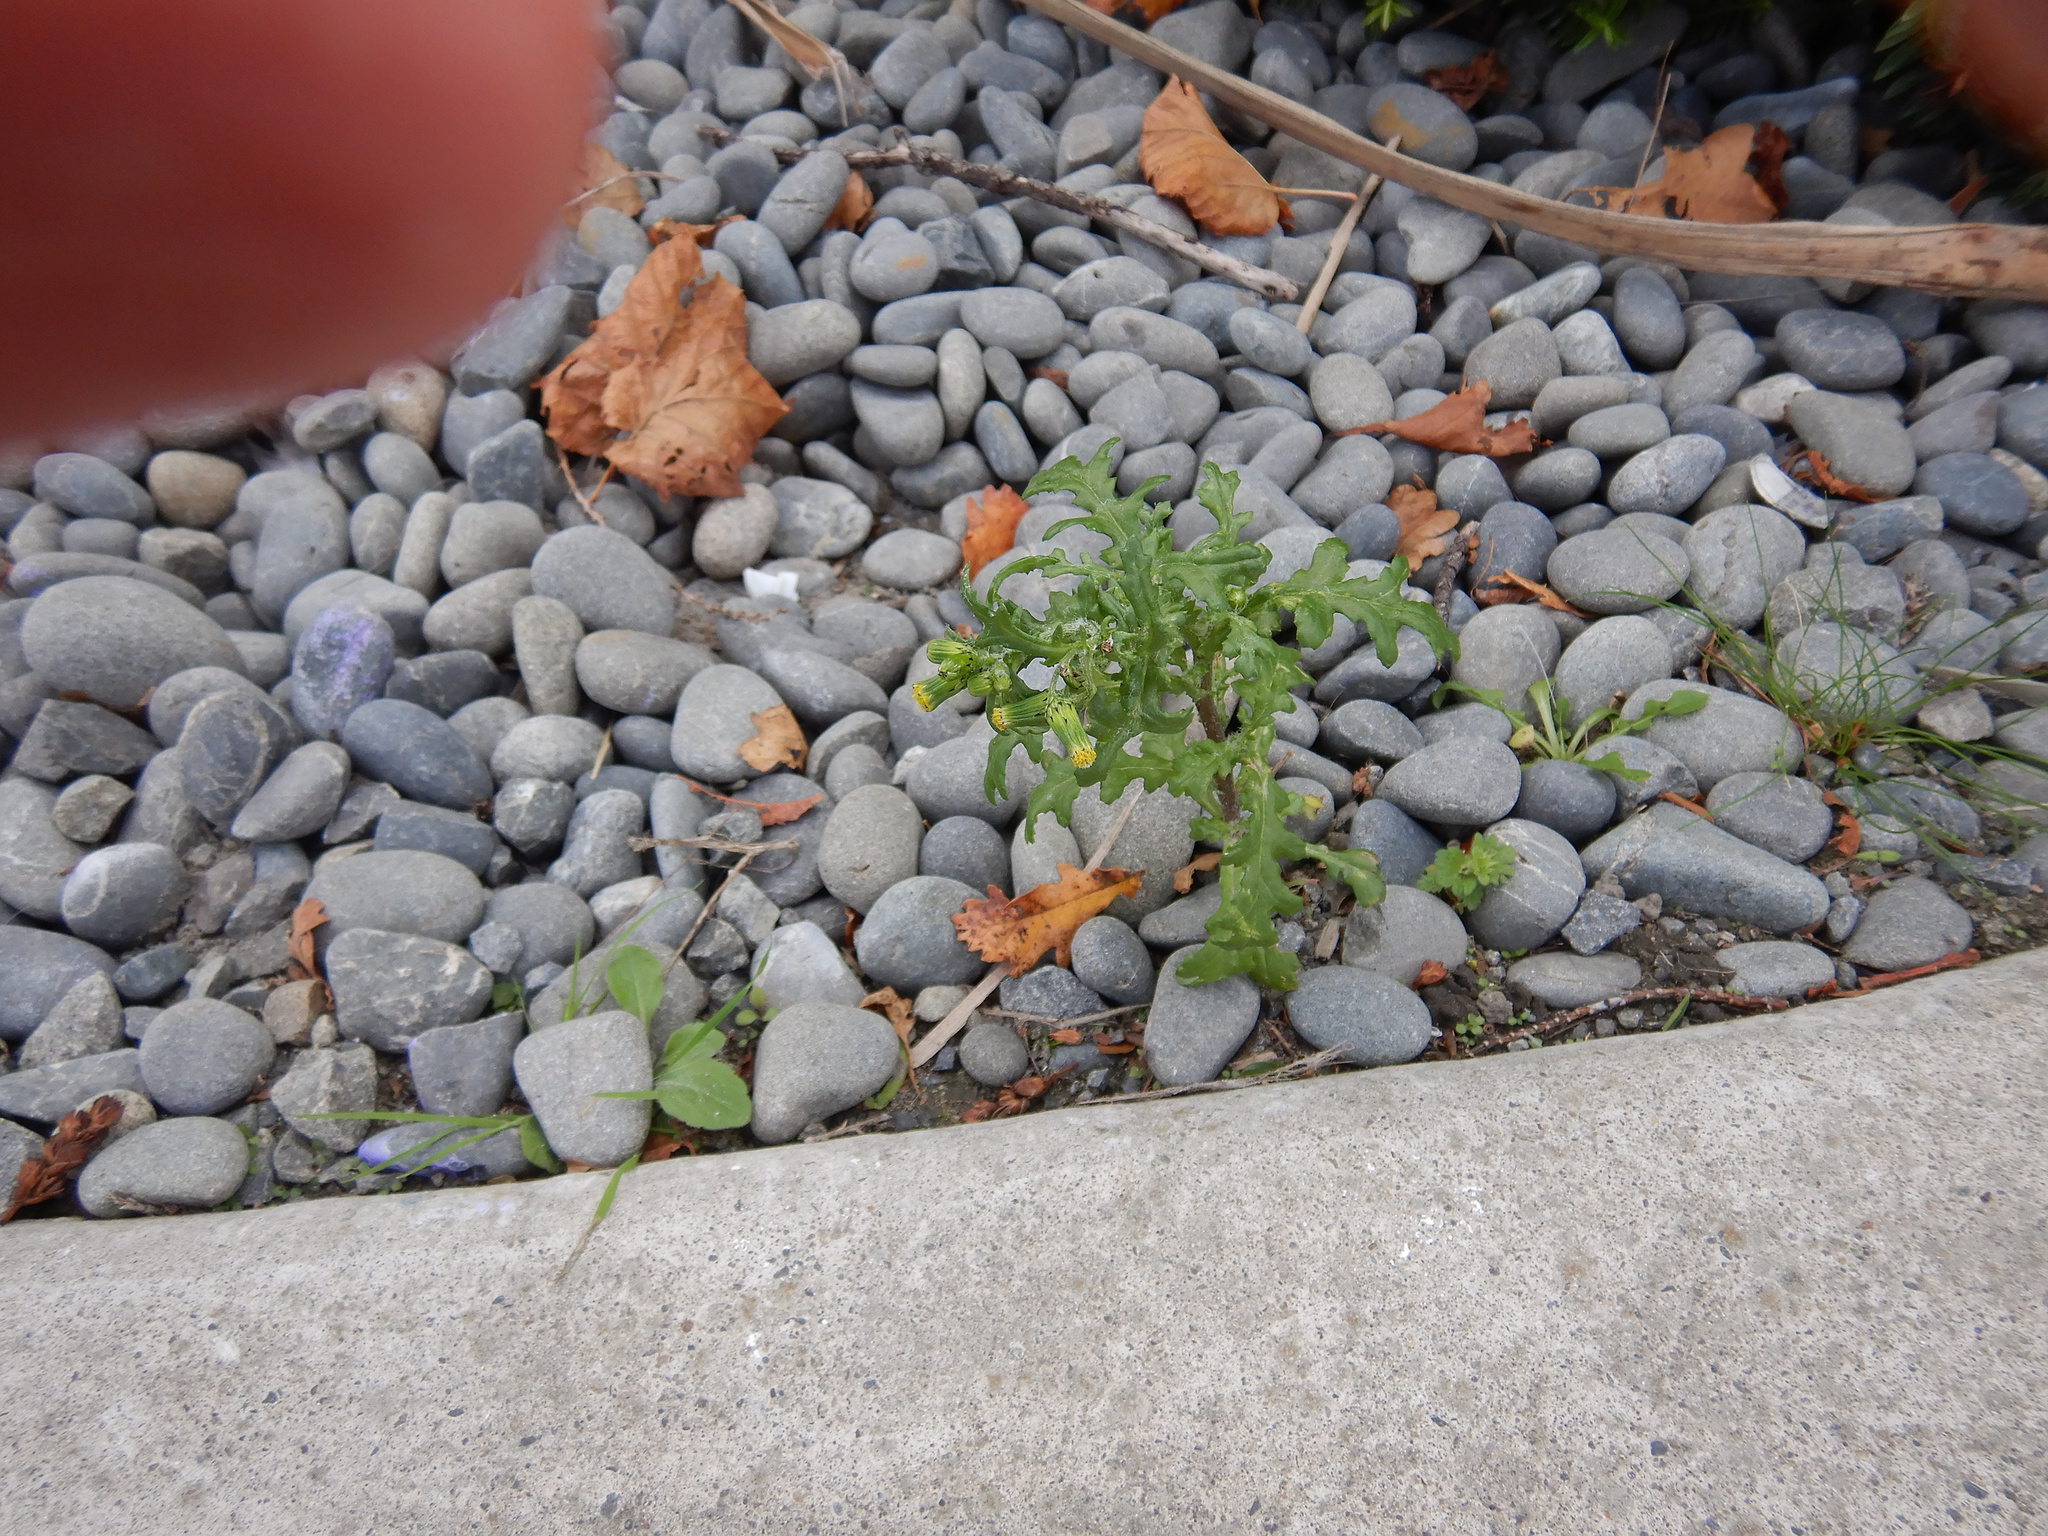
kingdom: Plantae
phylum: Tracheophyta
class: Magnoliopsida
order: Asterales
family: Asteraceae
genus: Senecio
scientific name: Senecio vulgaris
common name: Old-man-in-the-spring
